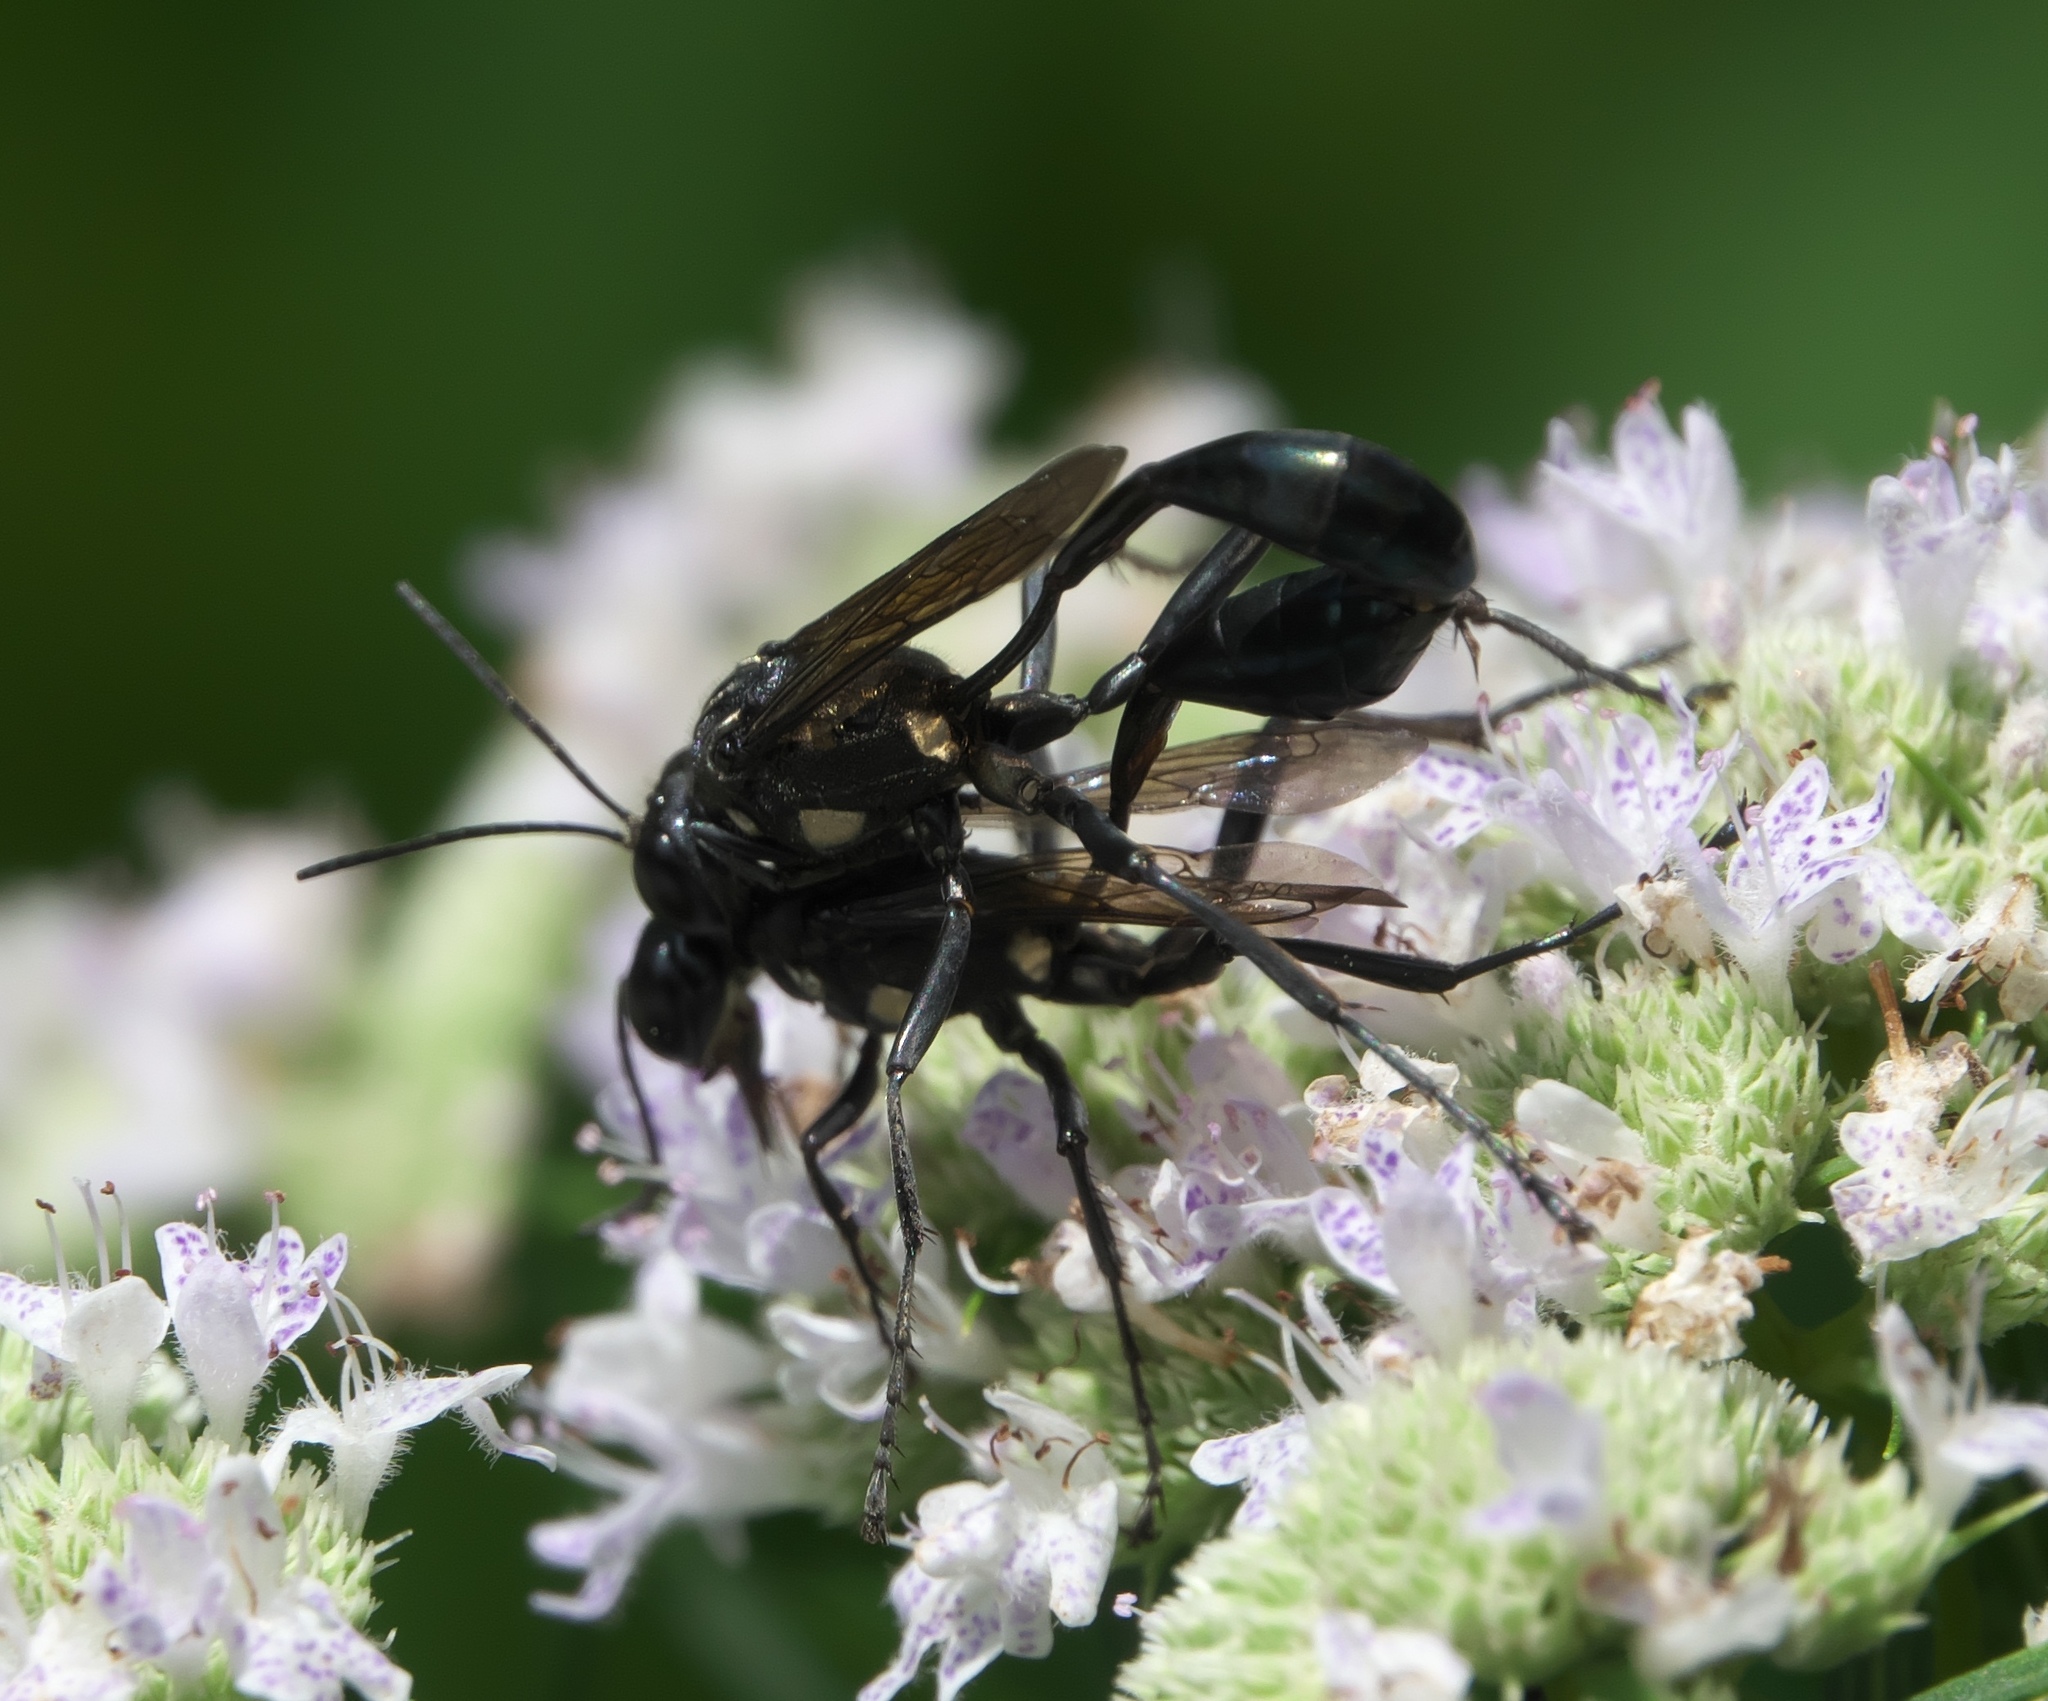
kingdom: Animalia
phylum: Arthropoda
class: Insecta
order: Hymenoptera
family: Sphecidae
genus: Eremnophila
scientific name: Eremnophila aureonotata
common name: Gold-marked thread-waisted wasp
